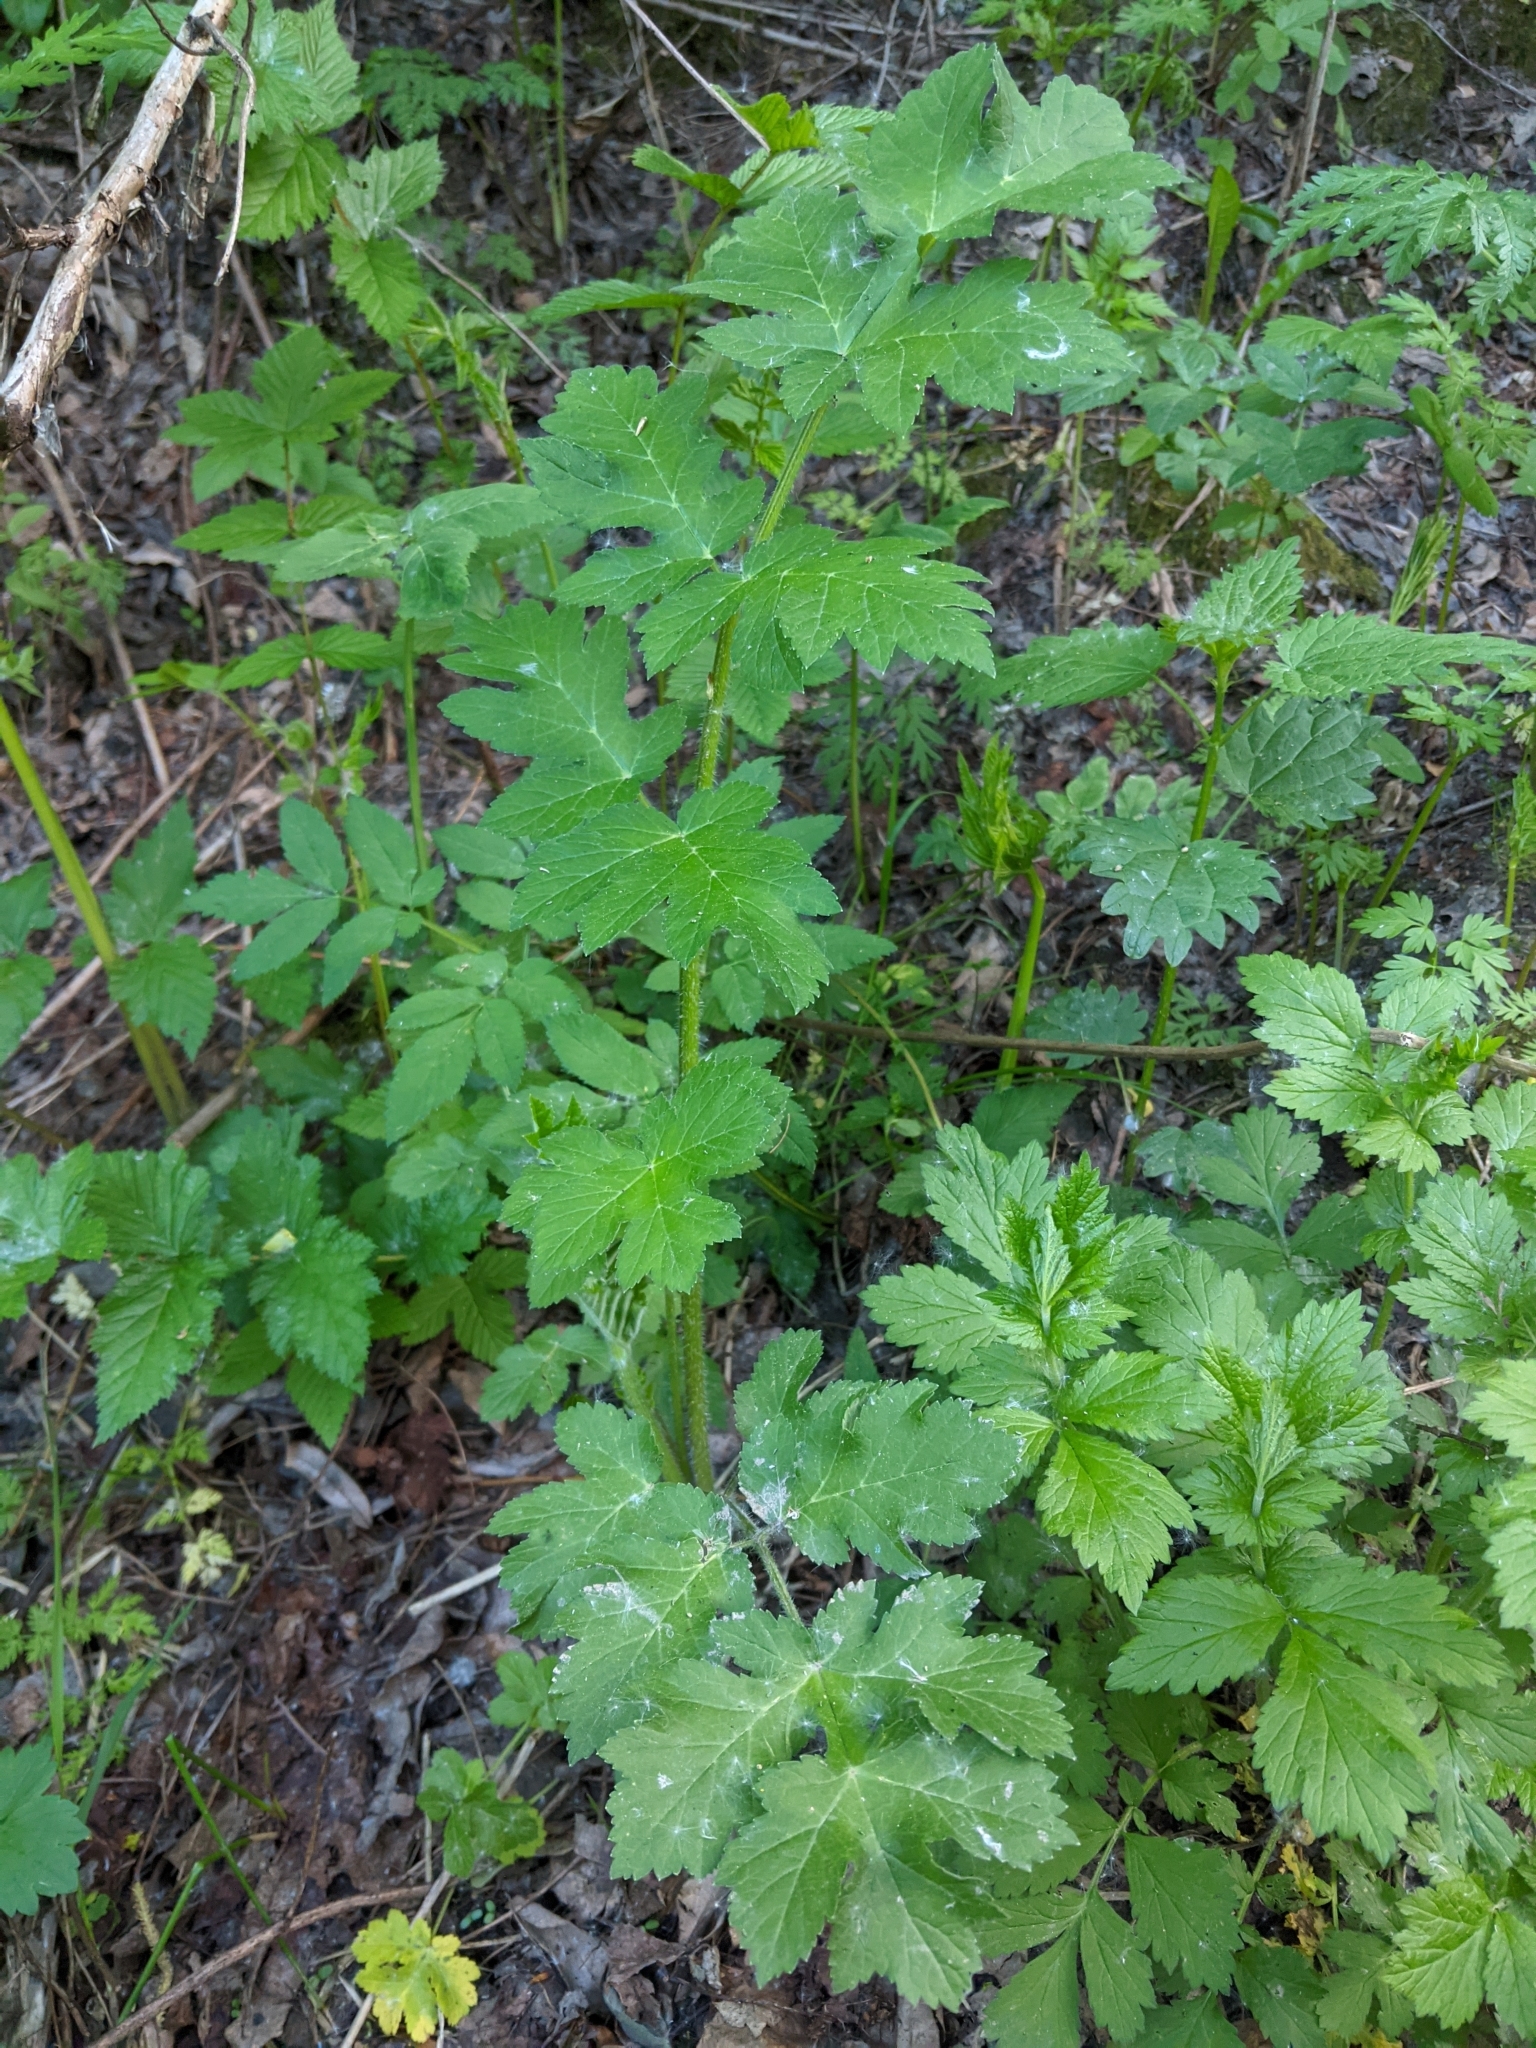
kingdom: Plantae
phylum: Tracheophyta
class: Magnoliopsida
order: Apiales
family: Apiaceae
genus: Heracleum
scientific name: Heracleum sphondylium
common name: Hogweed
